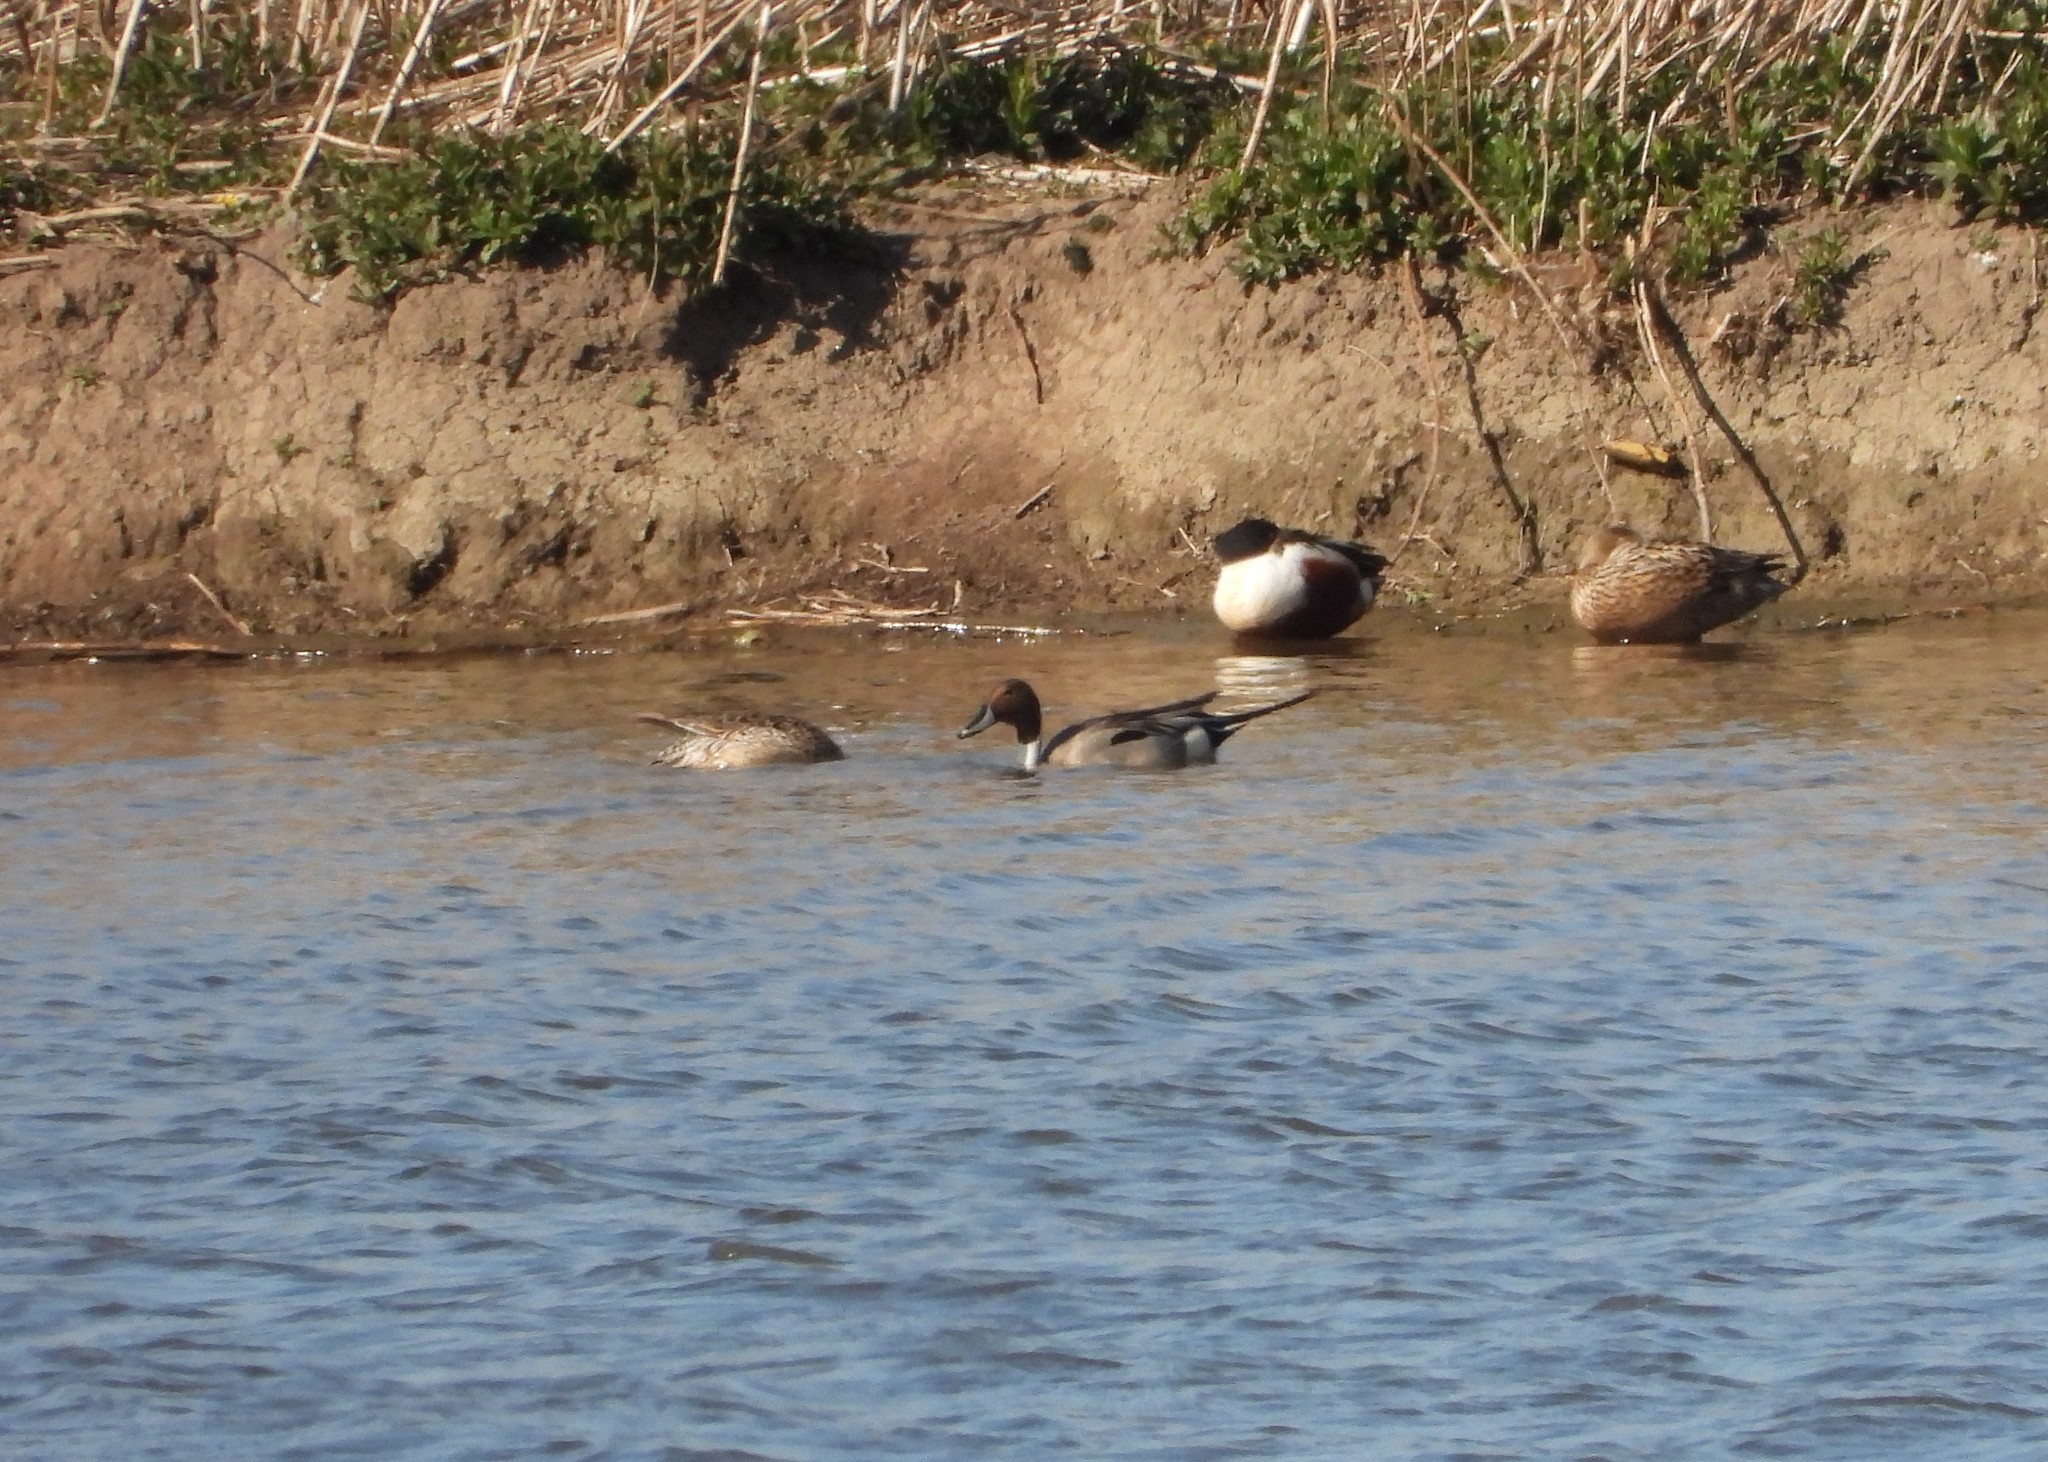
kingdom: Animalia
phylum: Chordata
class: Aves
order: Anseriformes
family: Anatidae
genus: Anas
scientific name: Anas acuta
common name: Northern pintail
